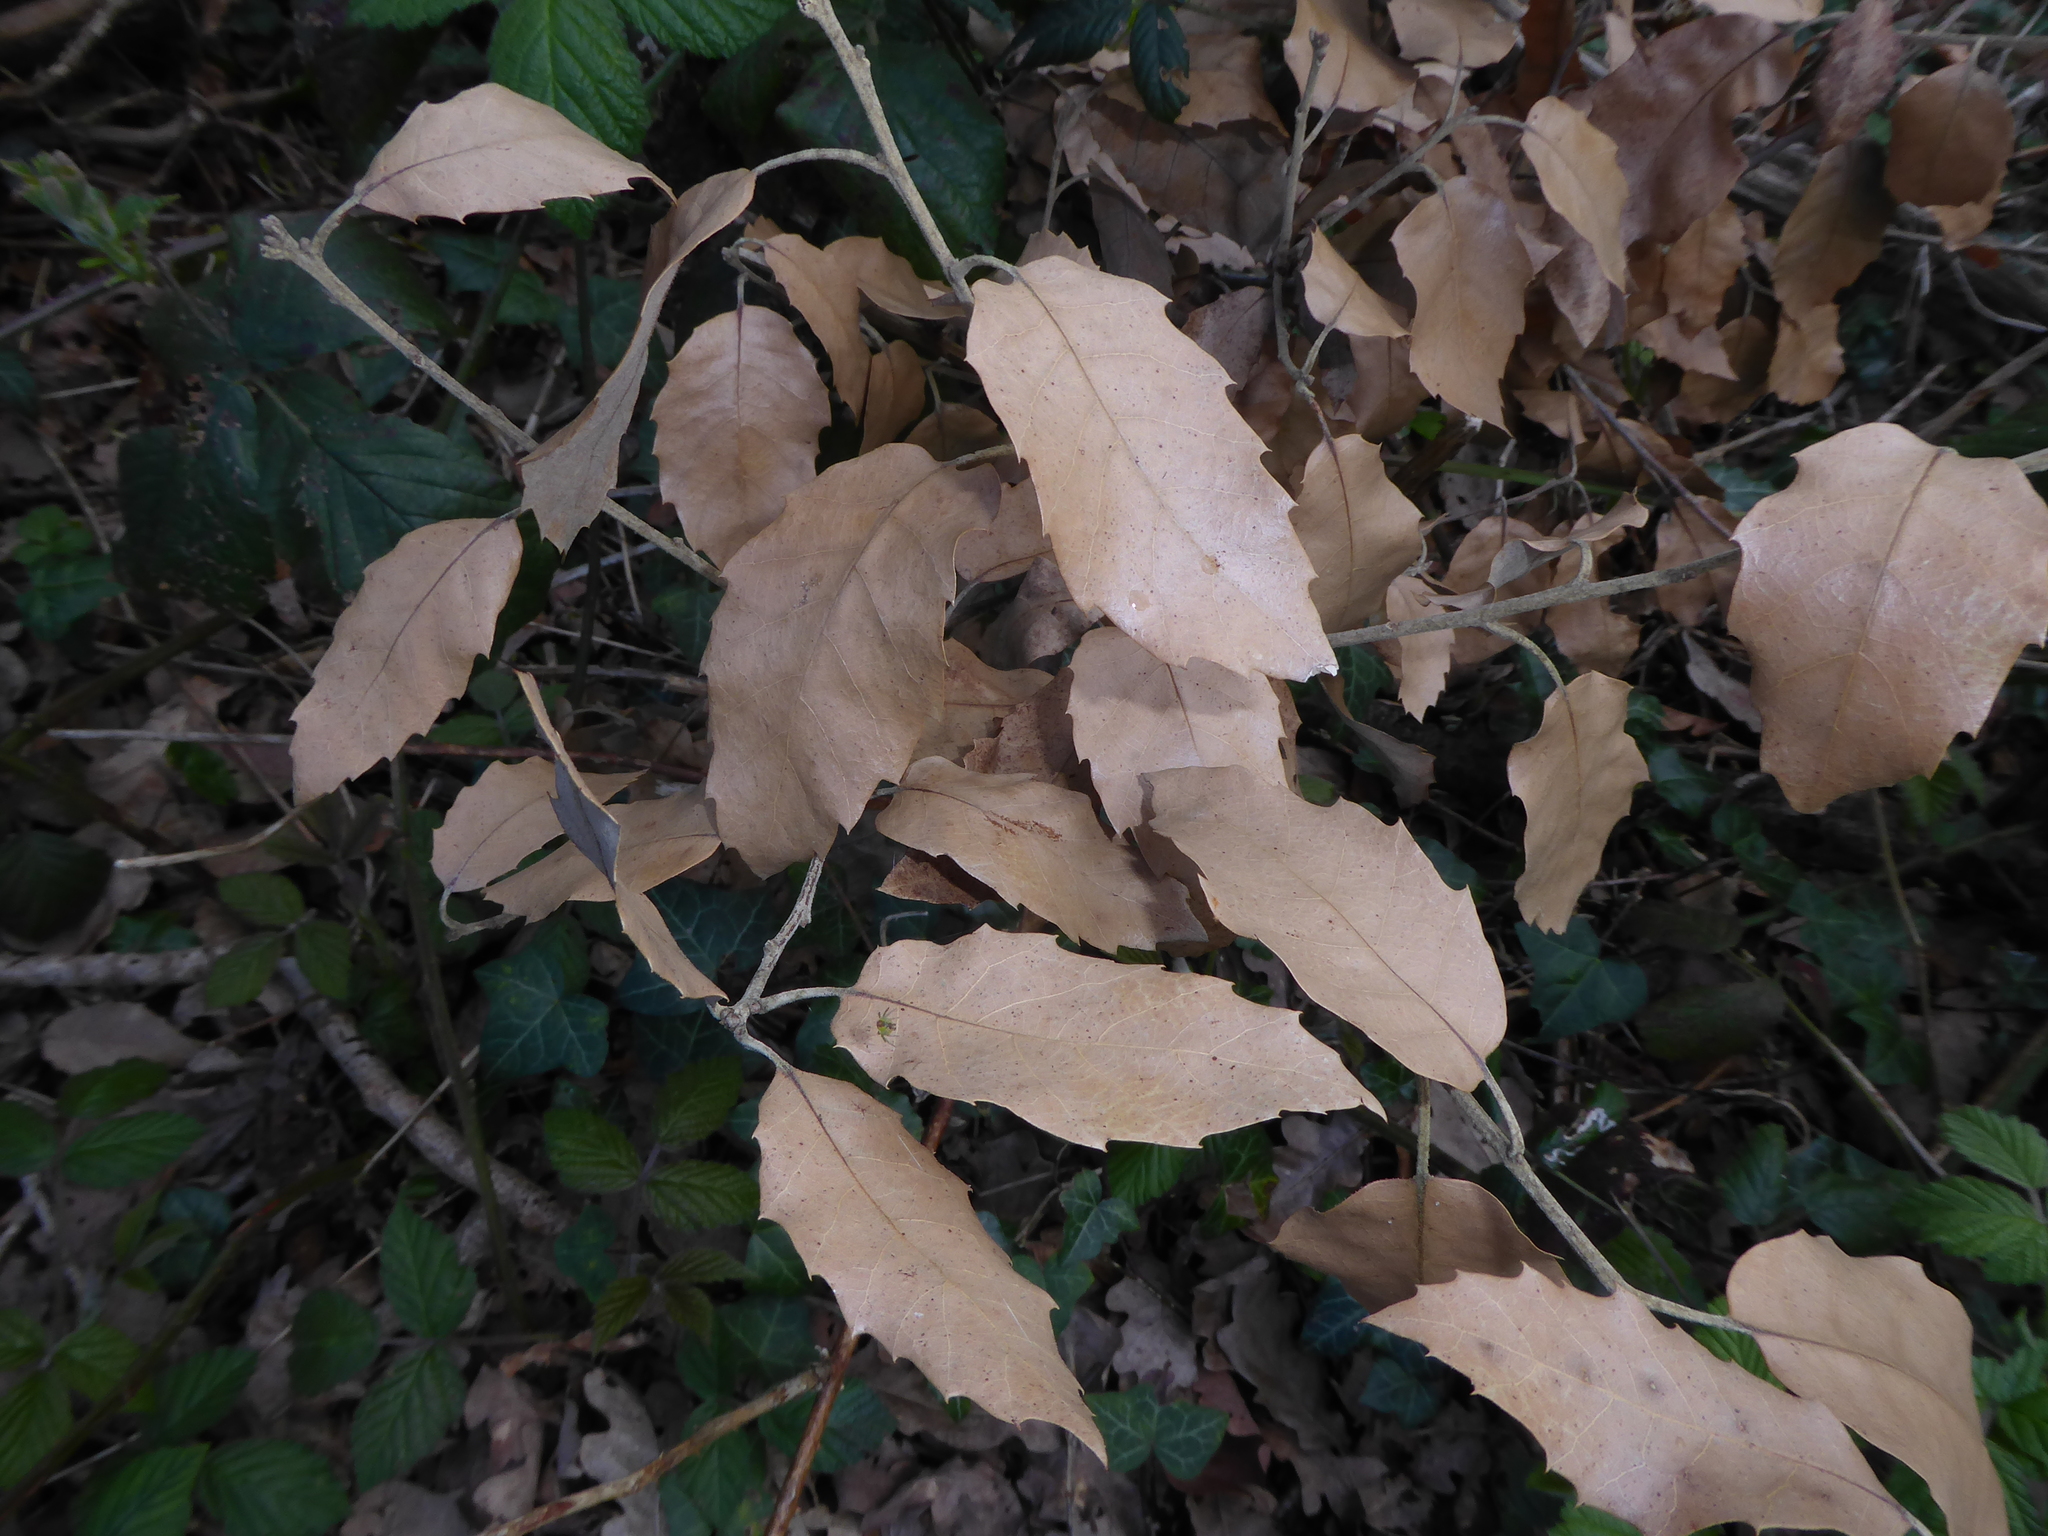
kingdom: Plantae
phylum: Tracheophyta
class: Magnoliopsida
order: Fagales
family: Fagaceae
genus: Quercus
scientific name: Quercus ilex
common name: Evergreen oak
